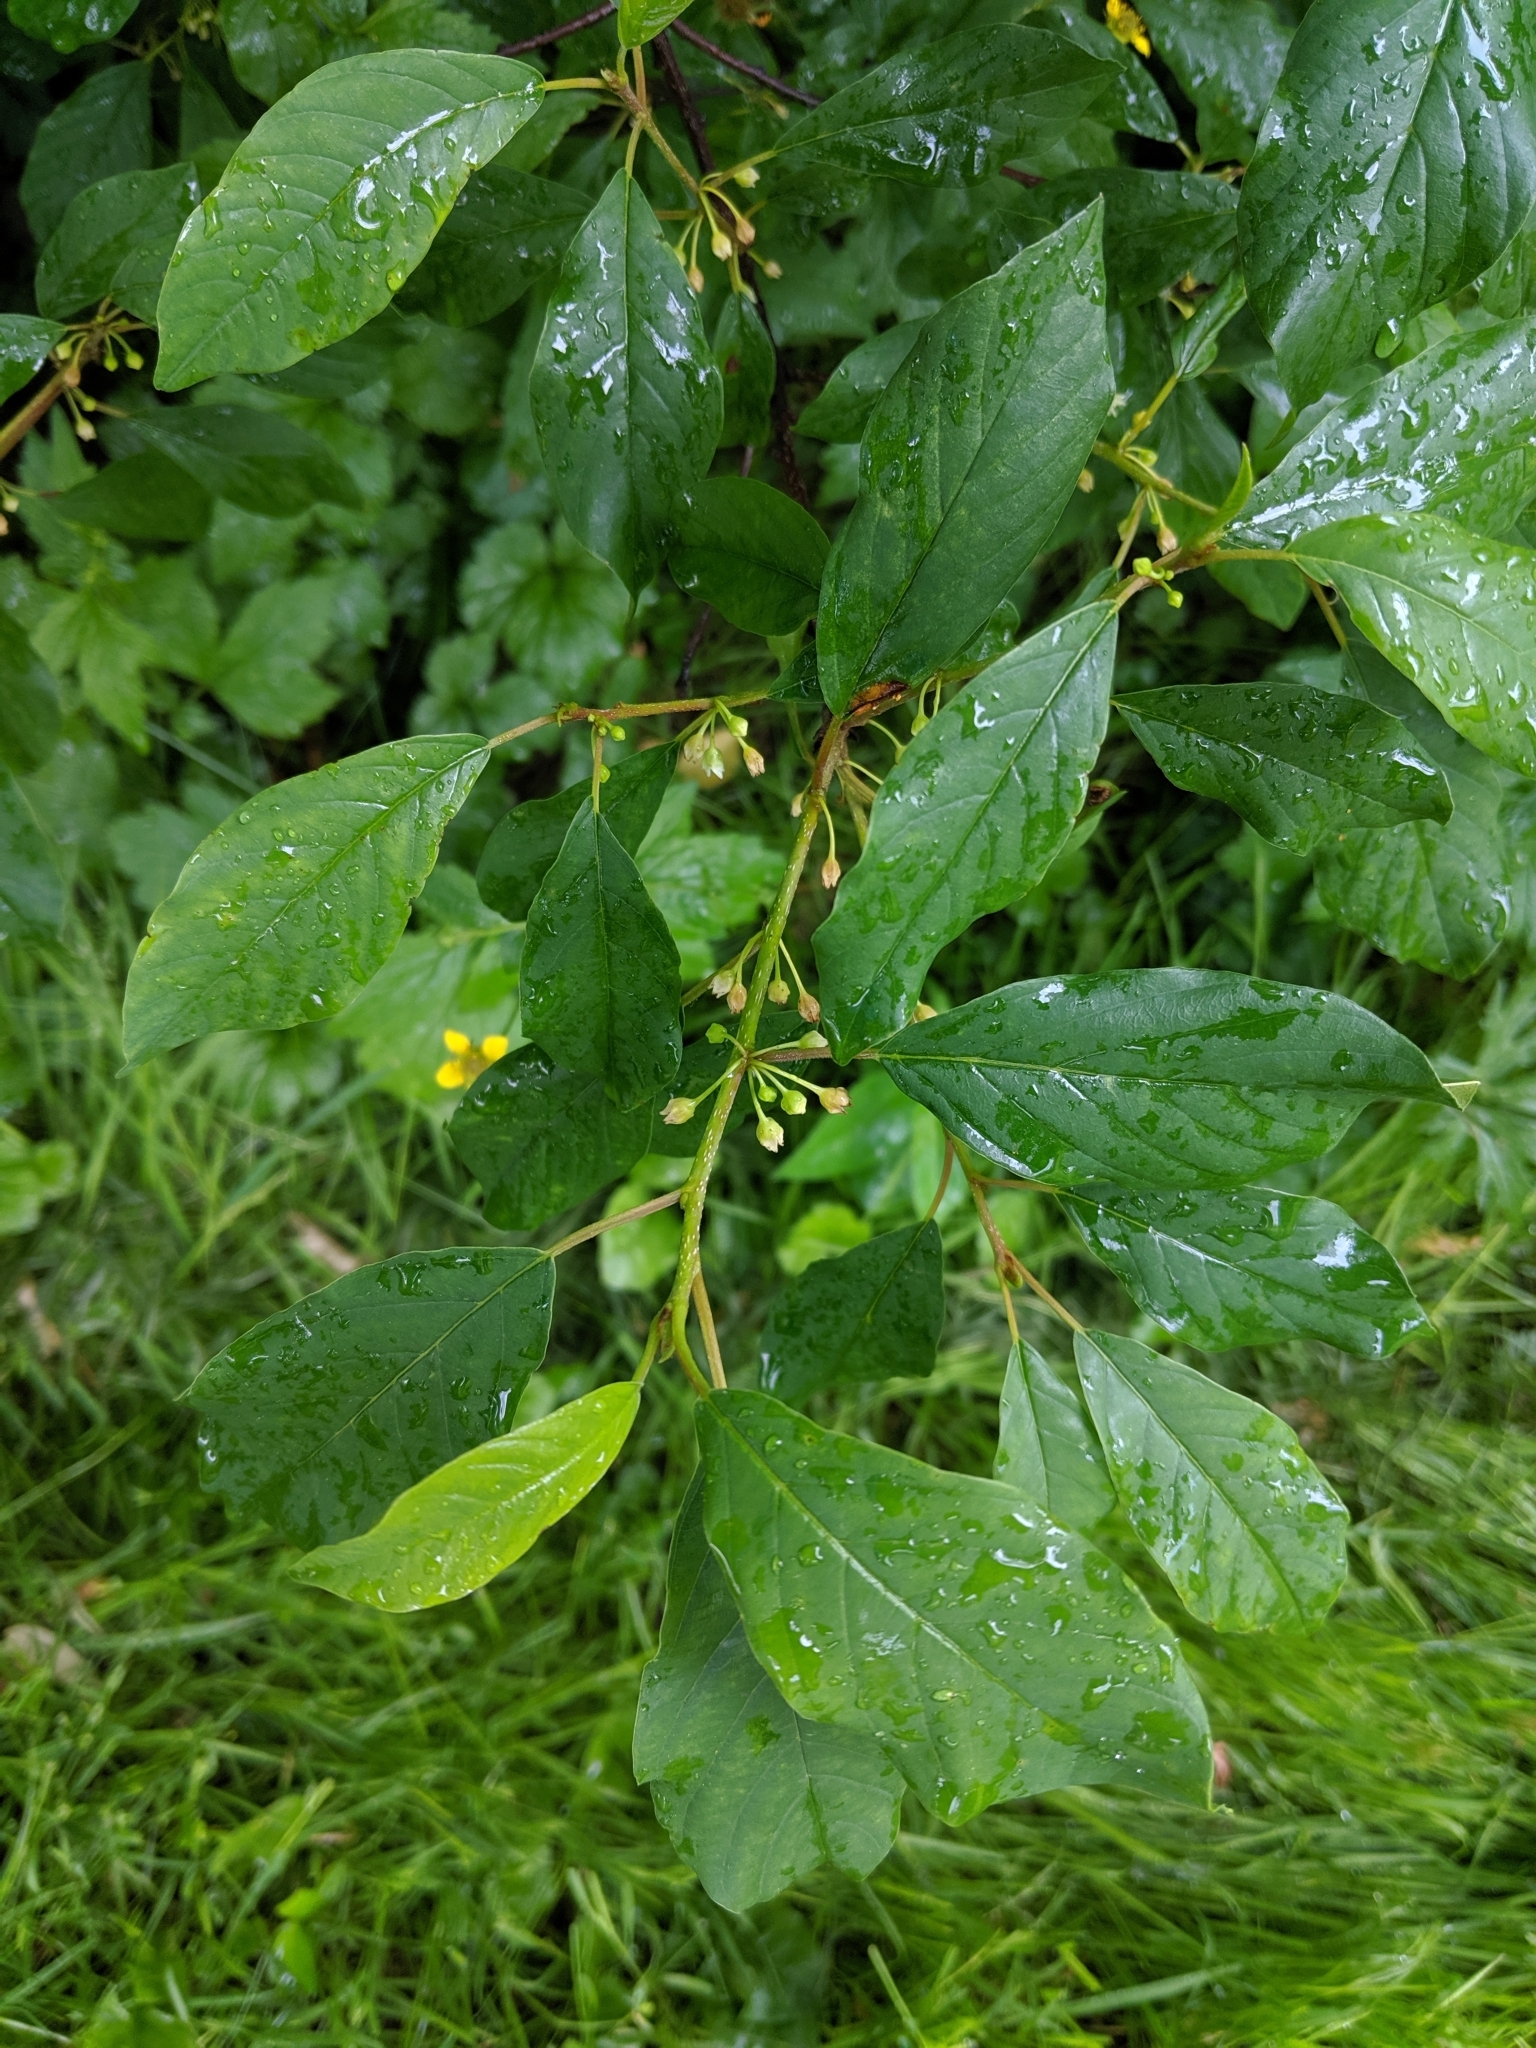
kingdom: Plantae
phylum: Tracheophyta
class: Magnoliopsida
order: Rosales
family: Rhamnaceae
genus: Frangula
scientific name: Frangula alnus
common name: Alder buckthorn
